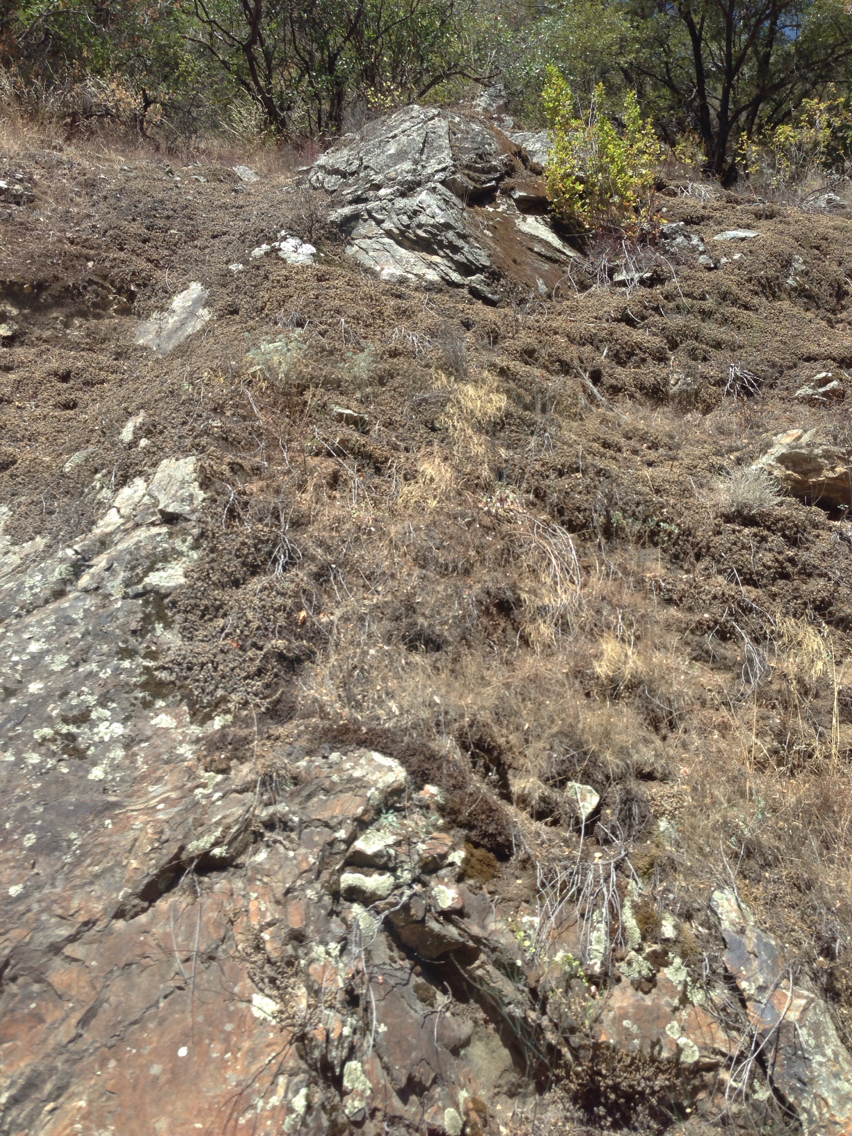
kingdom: Plantae
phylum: Tracheophyta
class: Lycopodiopsida
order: Selaginellales
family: Selaginellaceae
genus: Selaginella
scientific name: Selaginella hansenii
